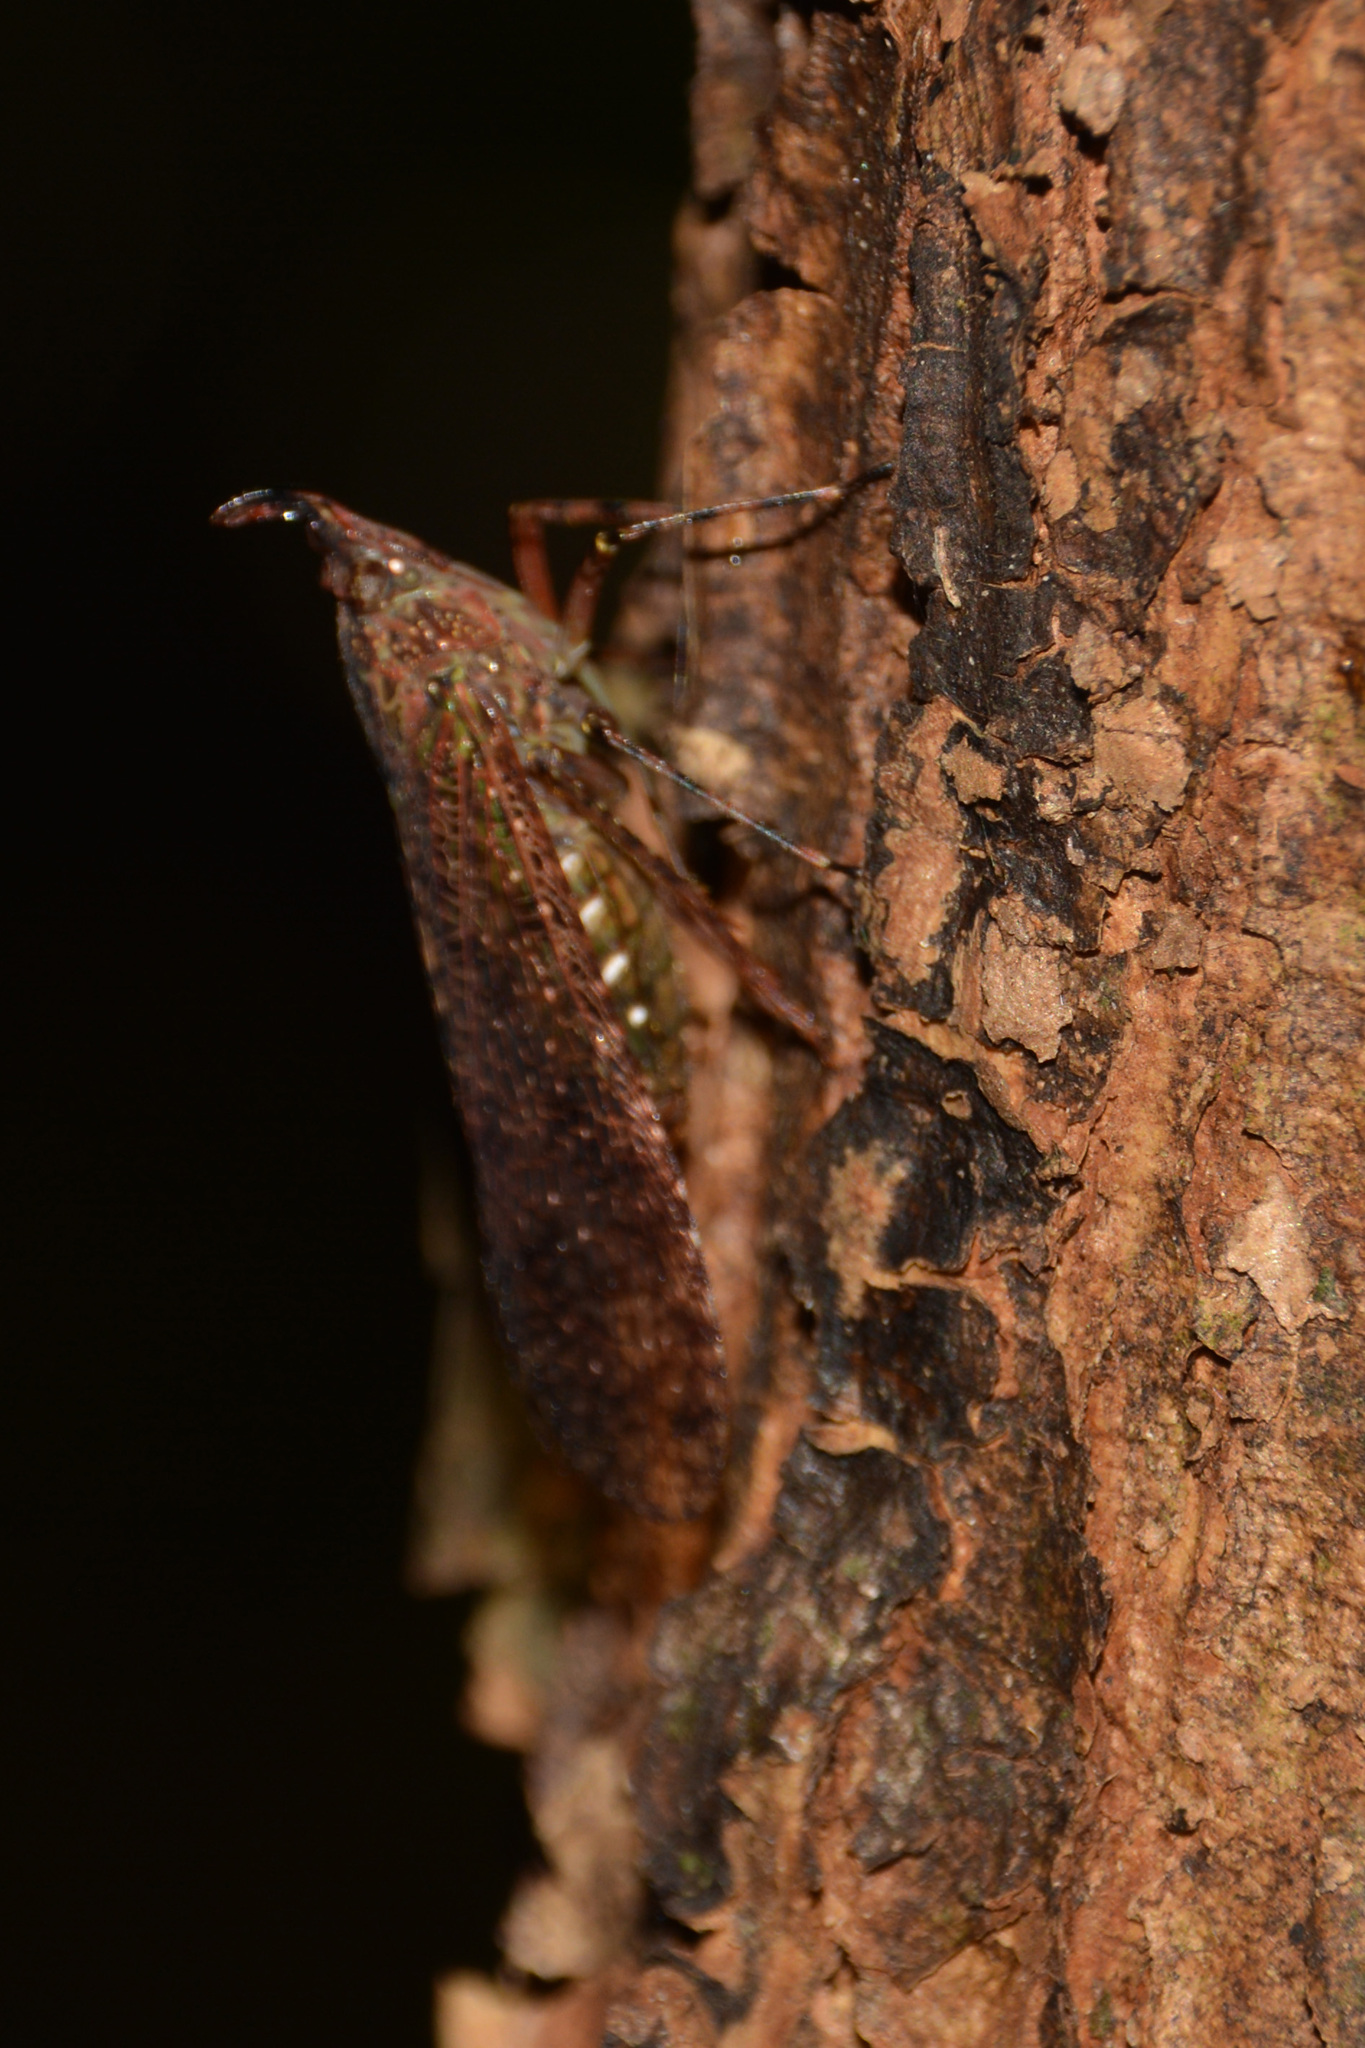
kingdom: Animalia
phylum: Arthropoda
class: Insecta
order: Hemiptera
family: Fulgoridae
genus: Enhydria
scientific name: Enhydria cicadina
